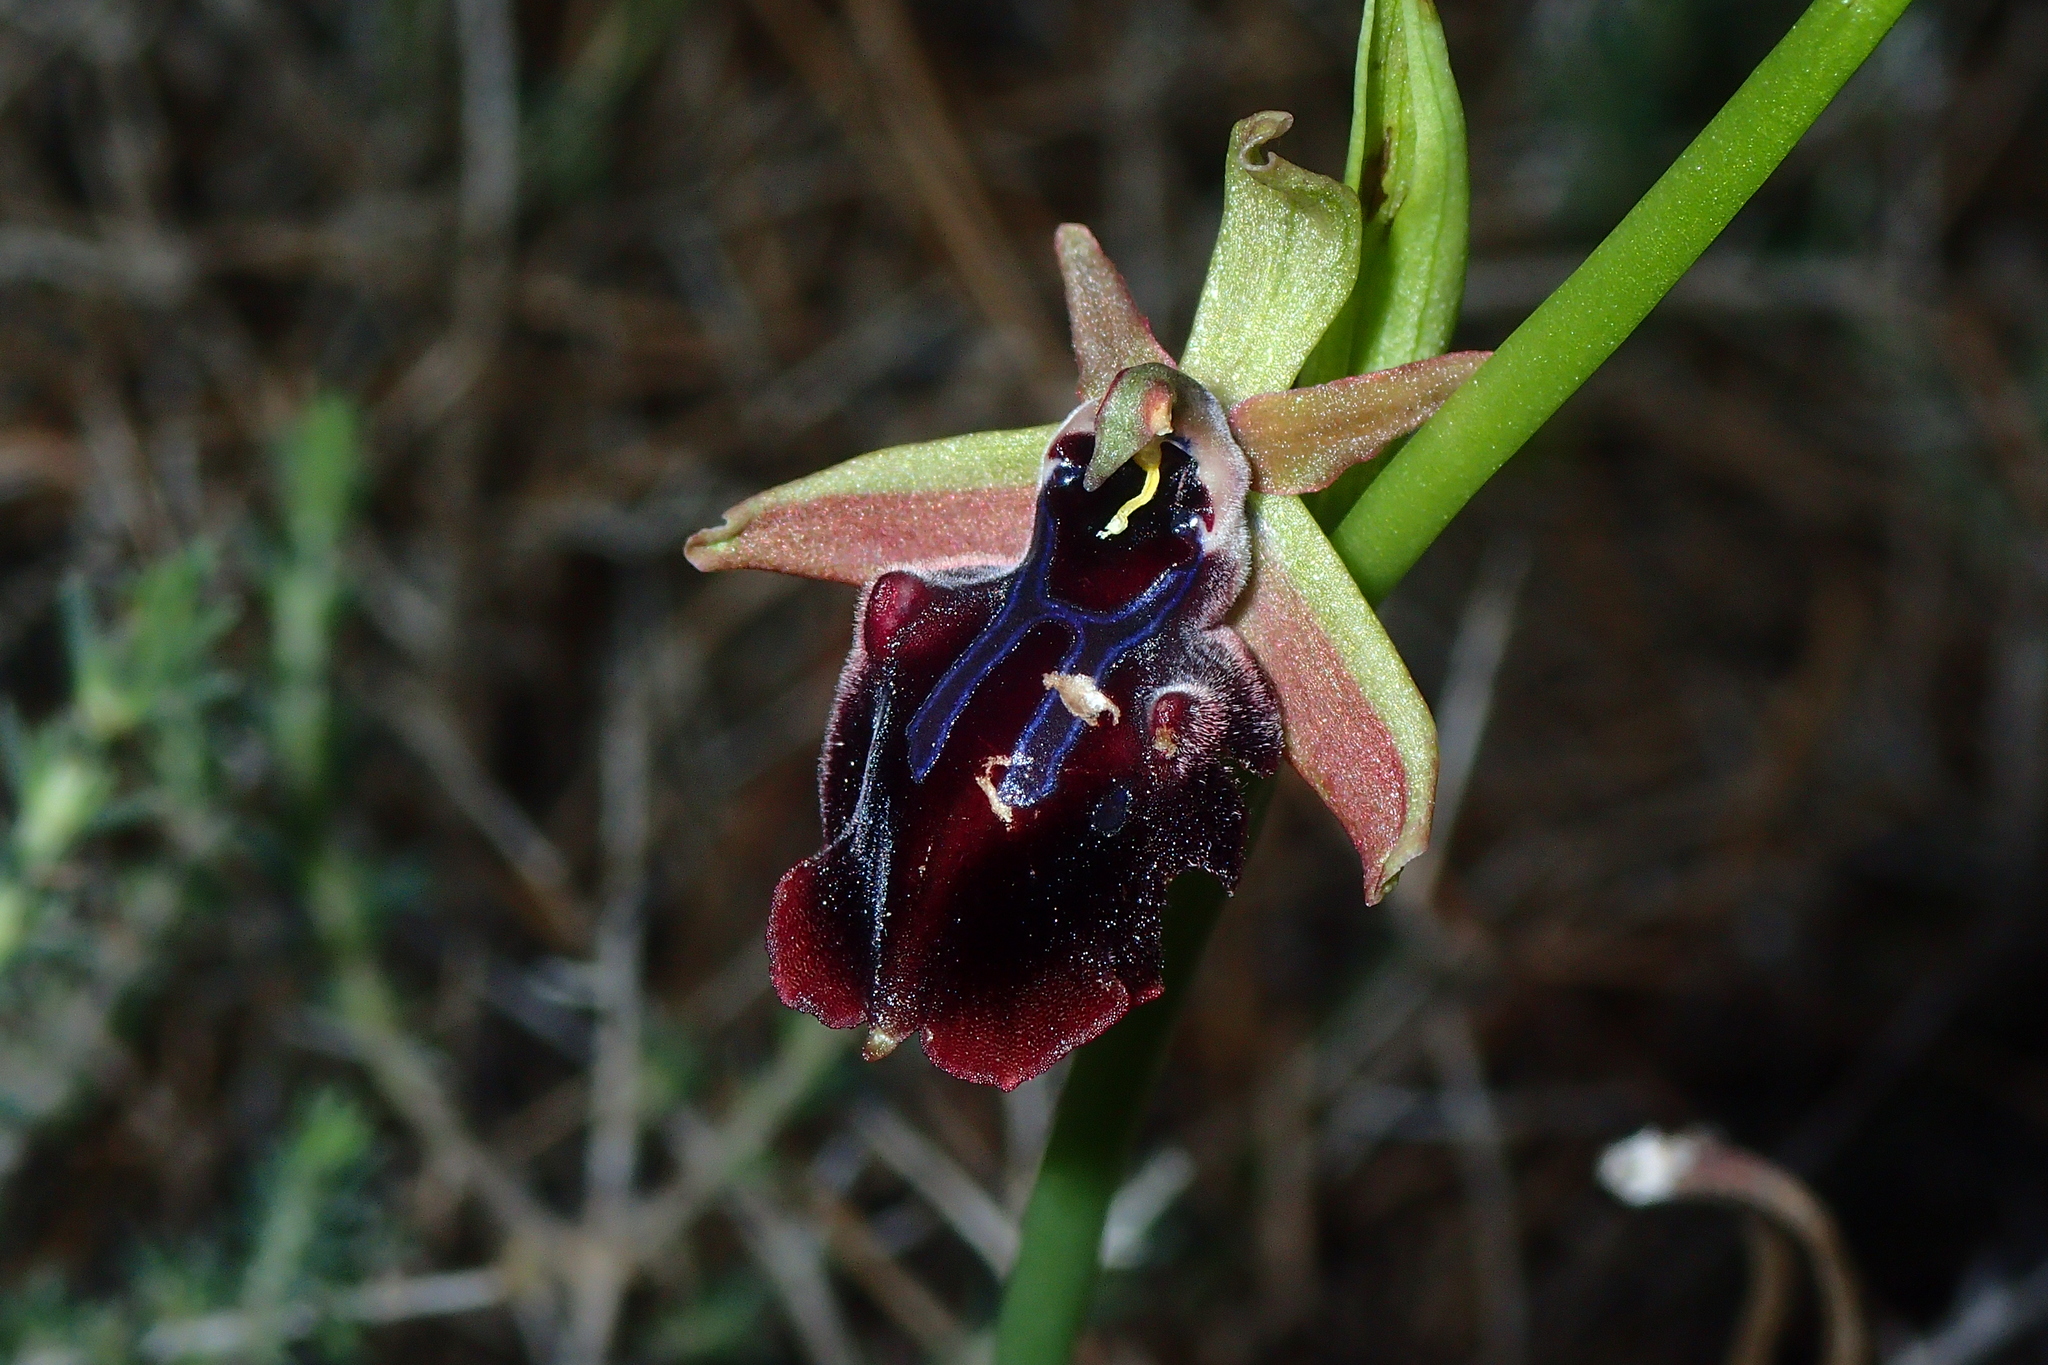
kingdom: Plantae
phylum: Tracheophyta
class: Liliopsida
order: Asparagales
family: Orchidaceae
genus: Ophrys
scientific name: Ophrys sphegodes
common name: Early spider-orchid
